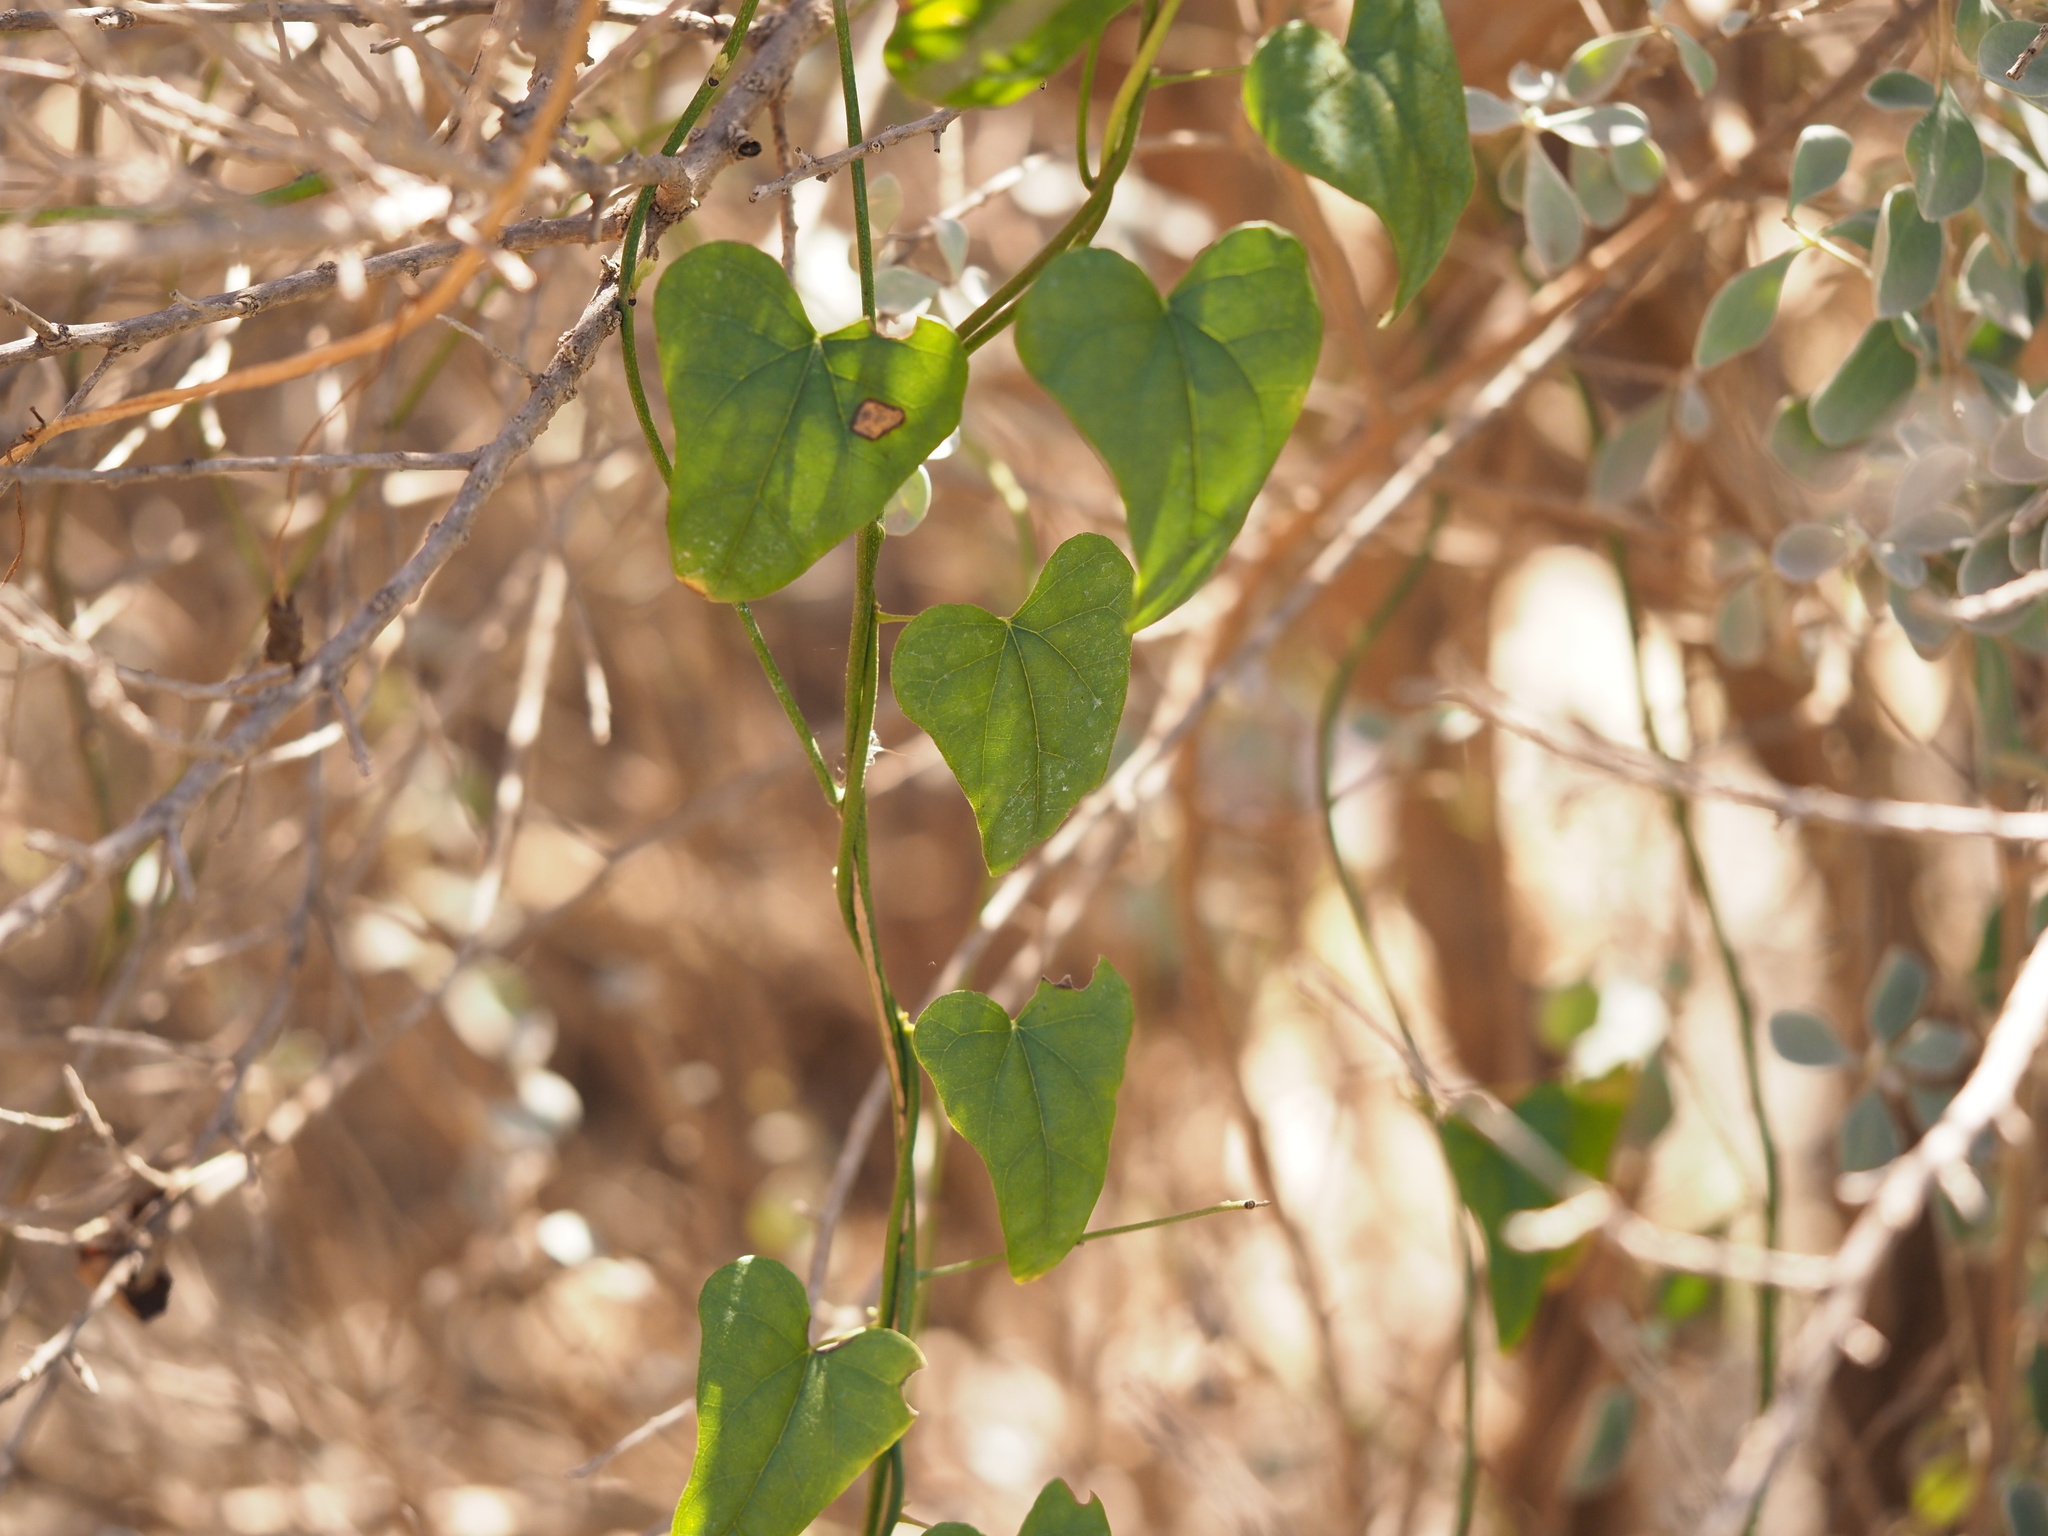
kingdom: Plantae
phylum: Tracheophyta
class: Magnoliopsida
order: Ranunculales
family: Menispermaceae
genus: Cocculus
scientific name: Cocculus carolinus
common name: Carolina moonseed
